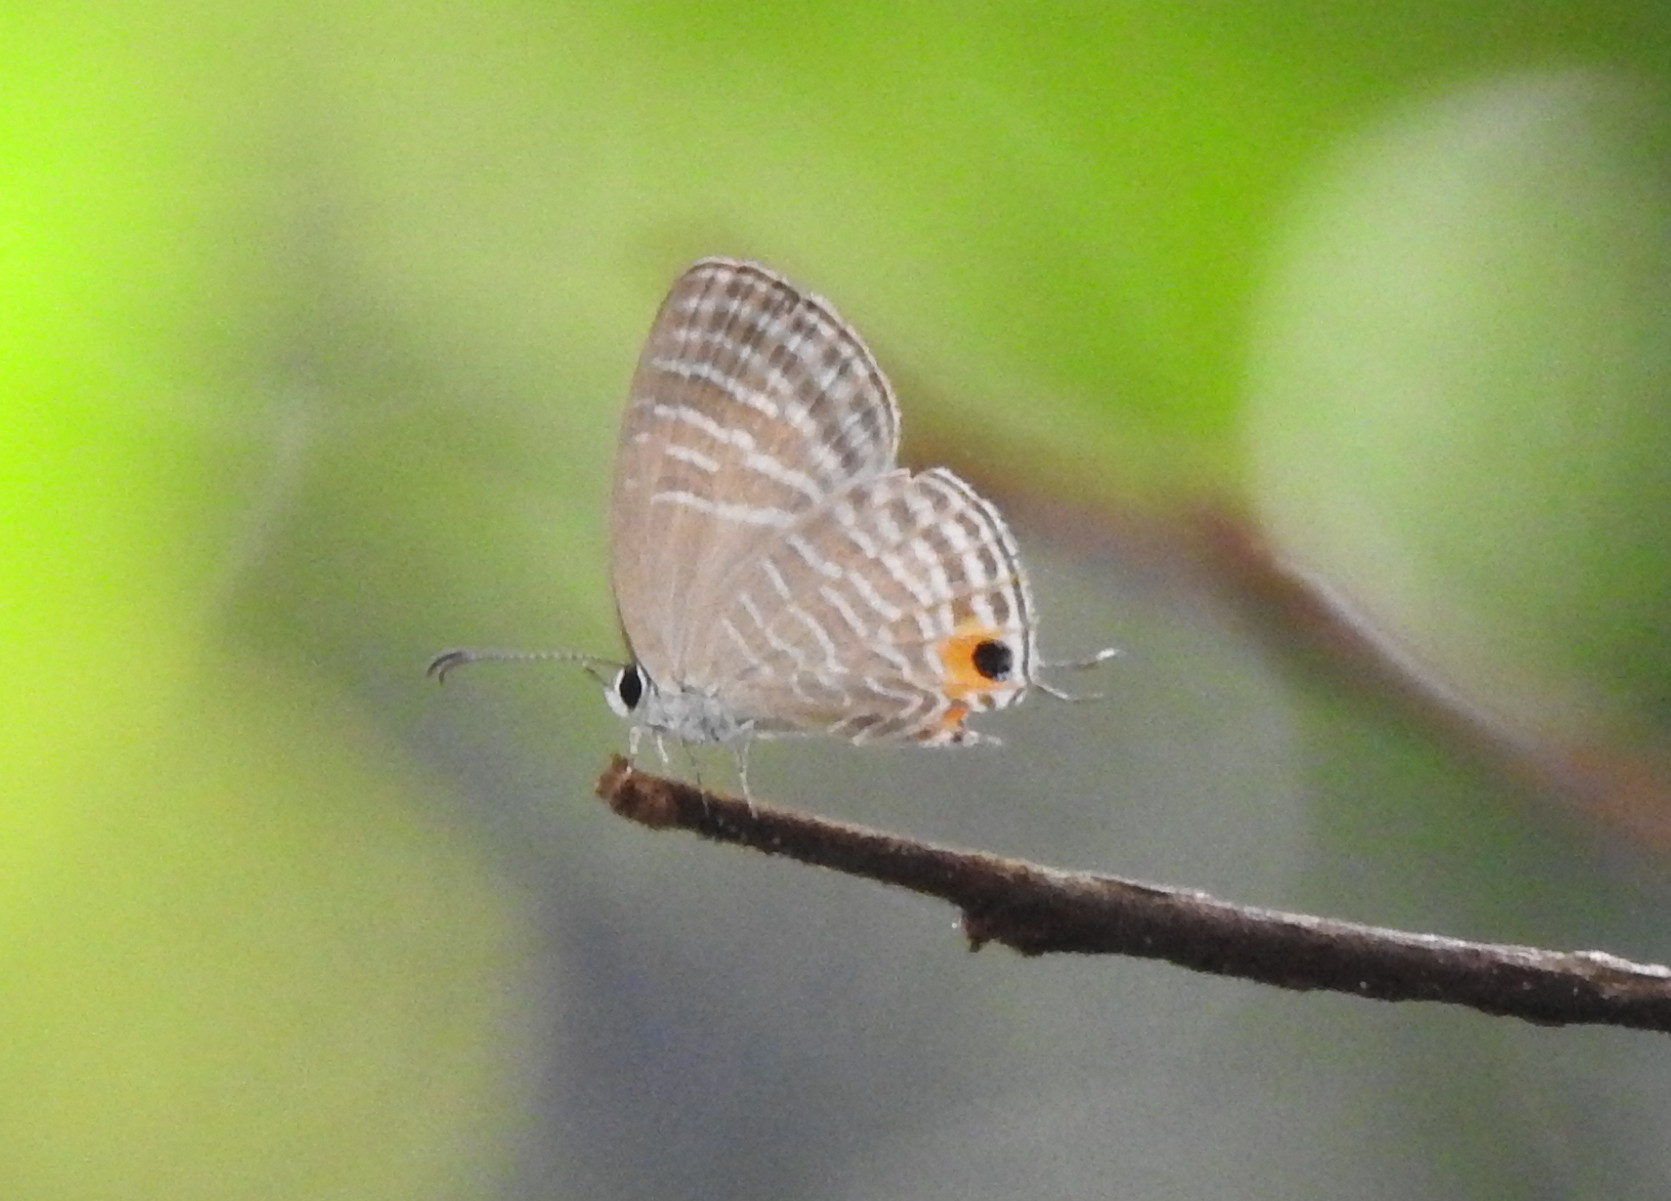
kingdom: Animalia
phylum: Arthropoda
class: Insecta
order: Lepidoptera
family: Lycaenidae
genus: Jamides
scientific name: Jamides celeno
